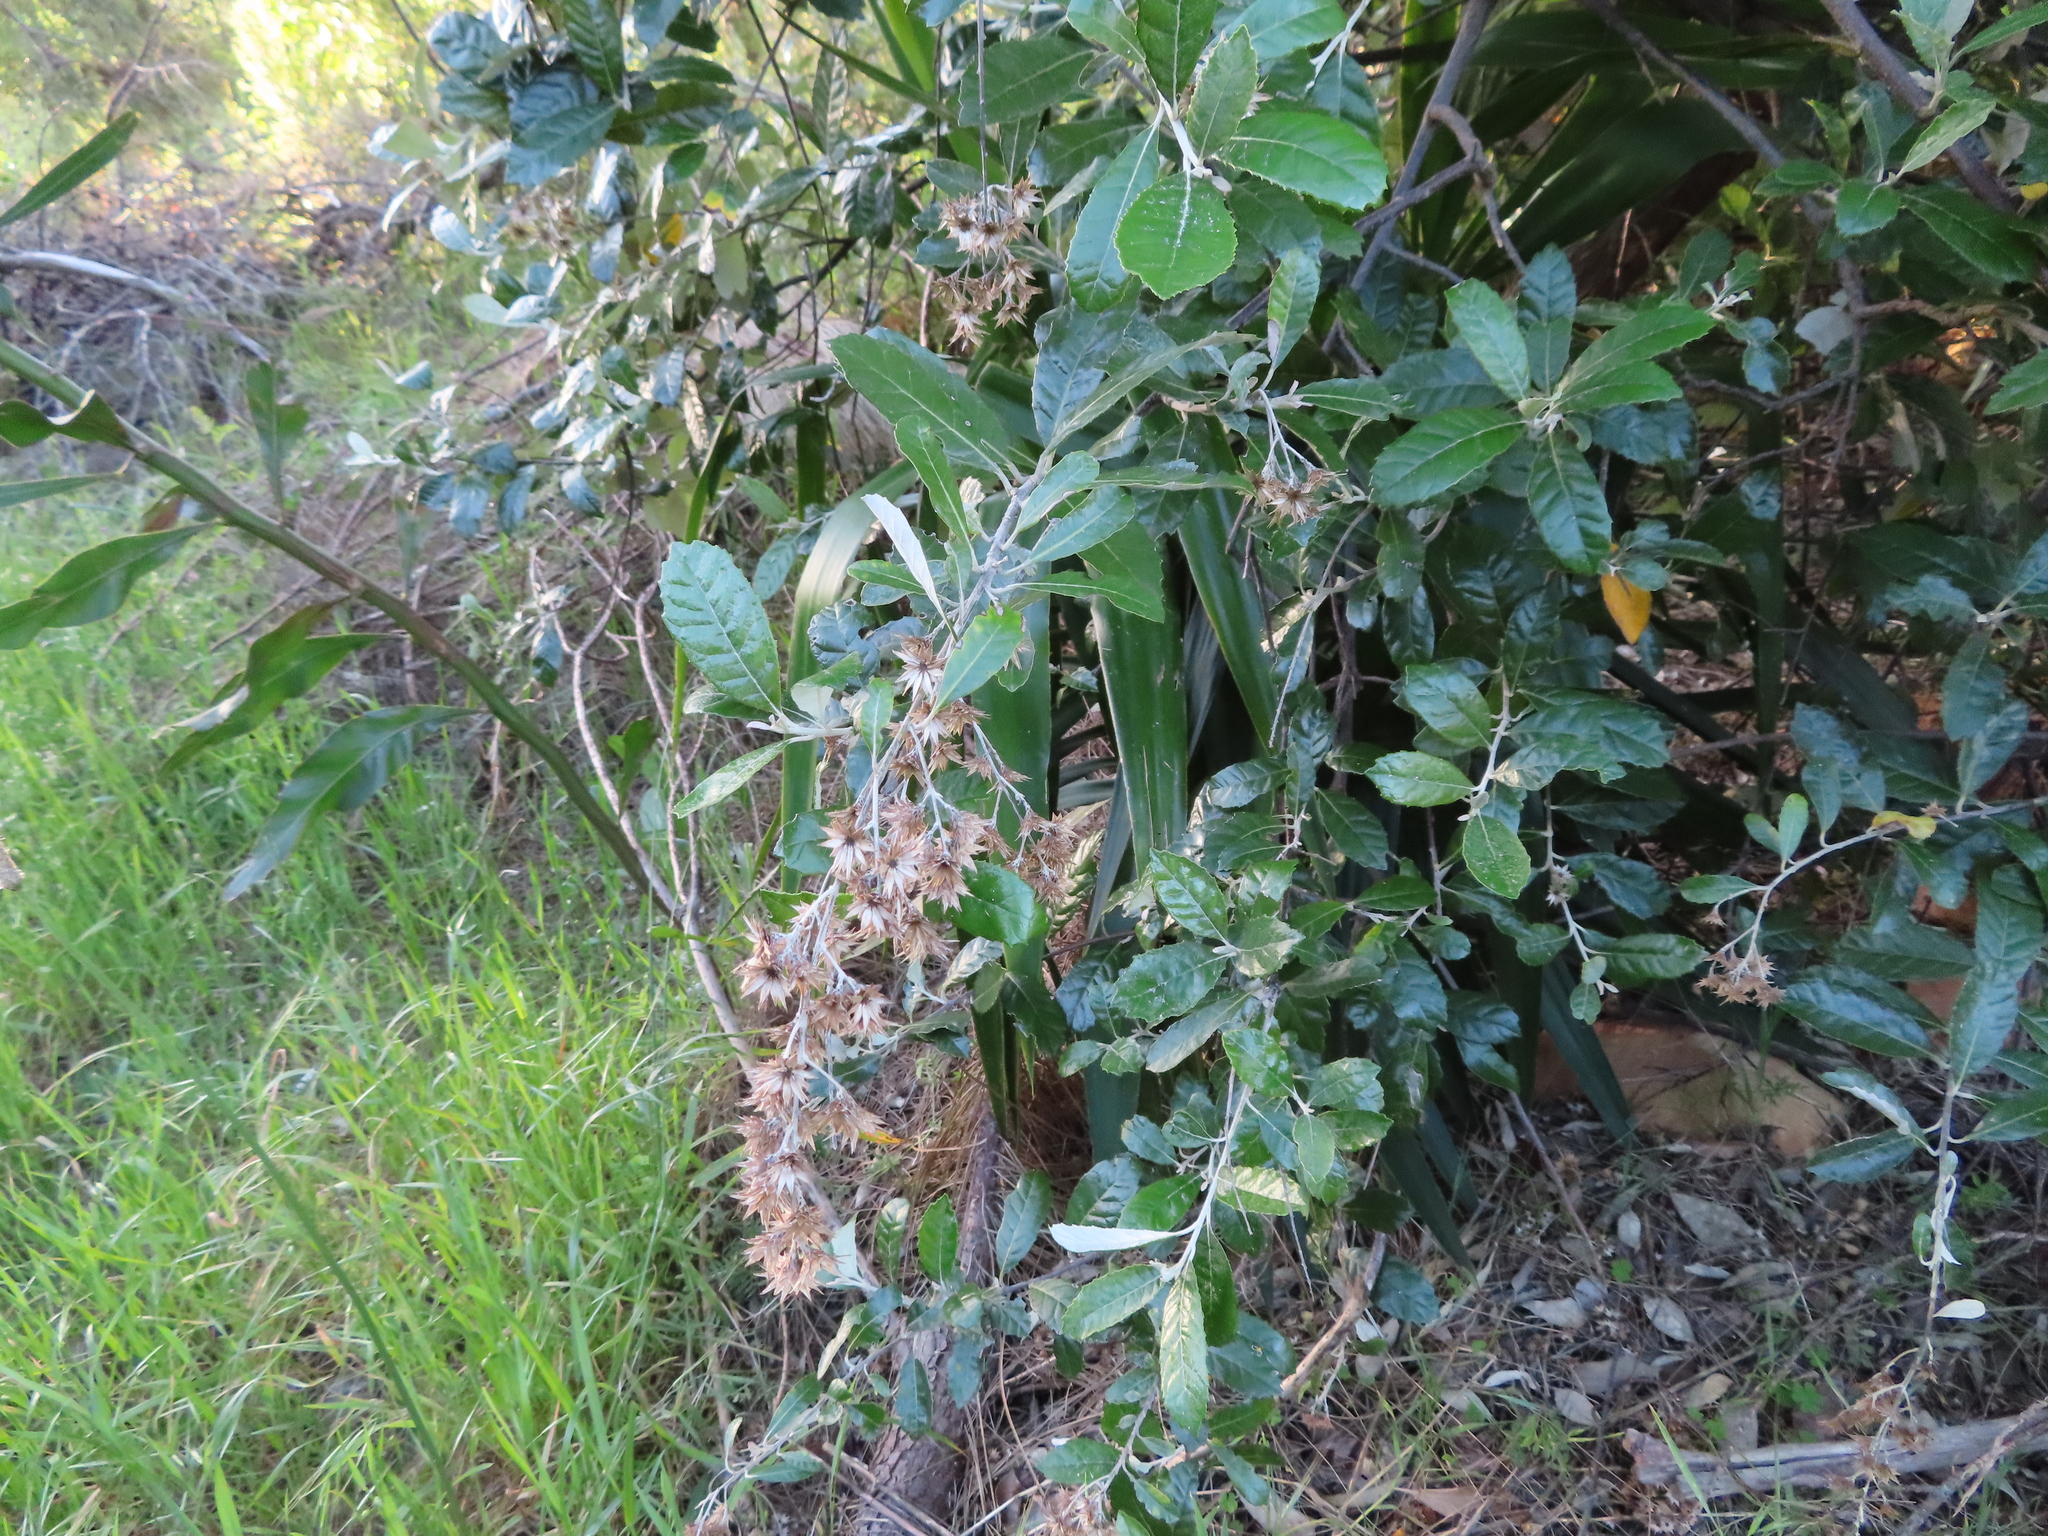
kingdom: Plantae
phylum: Tracheophyta
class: Magnoliopsida
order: Asterales
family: Asteraceae
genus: Brachylaena
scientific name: Brachylaena discolor
